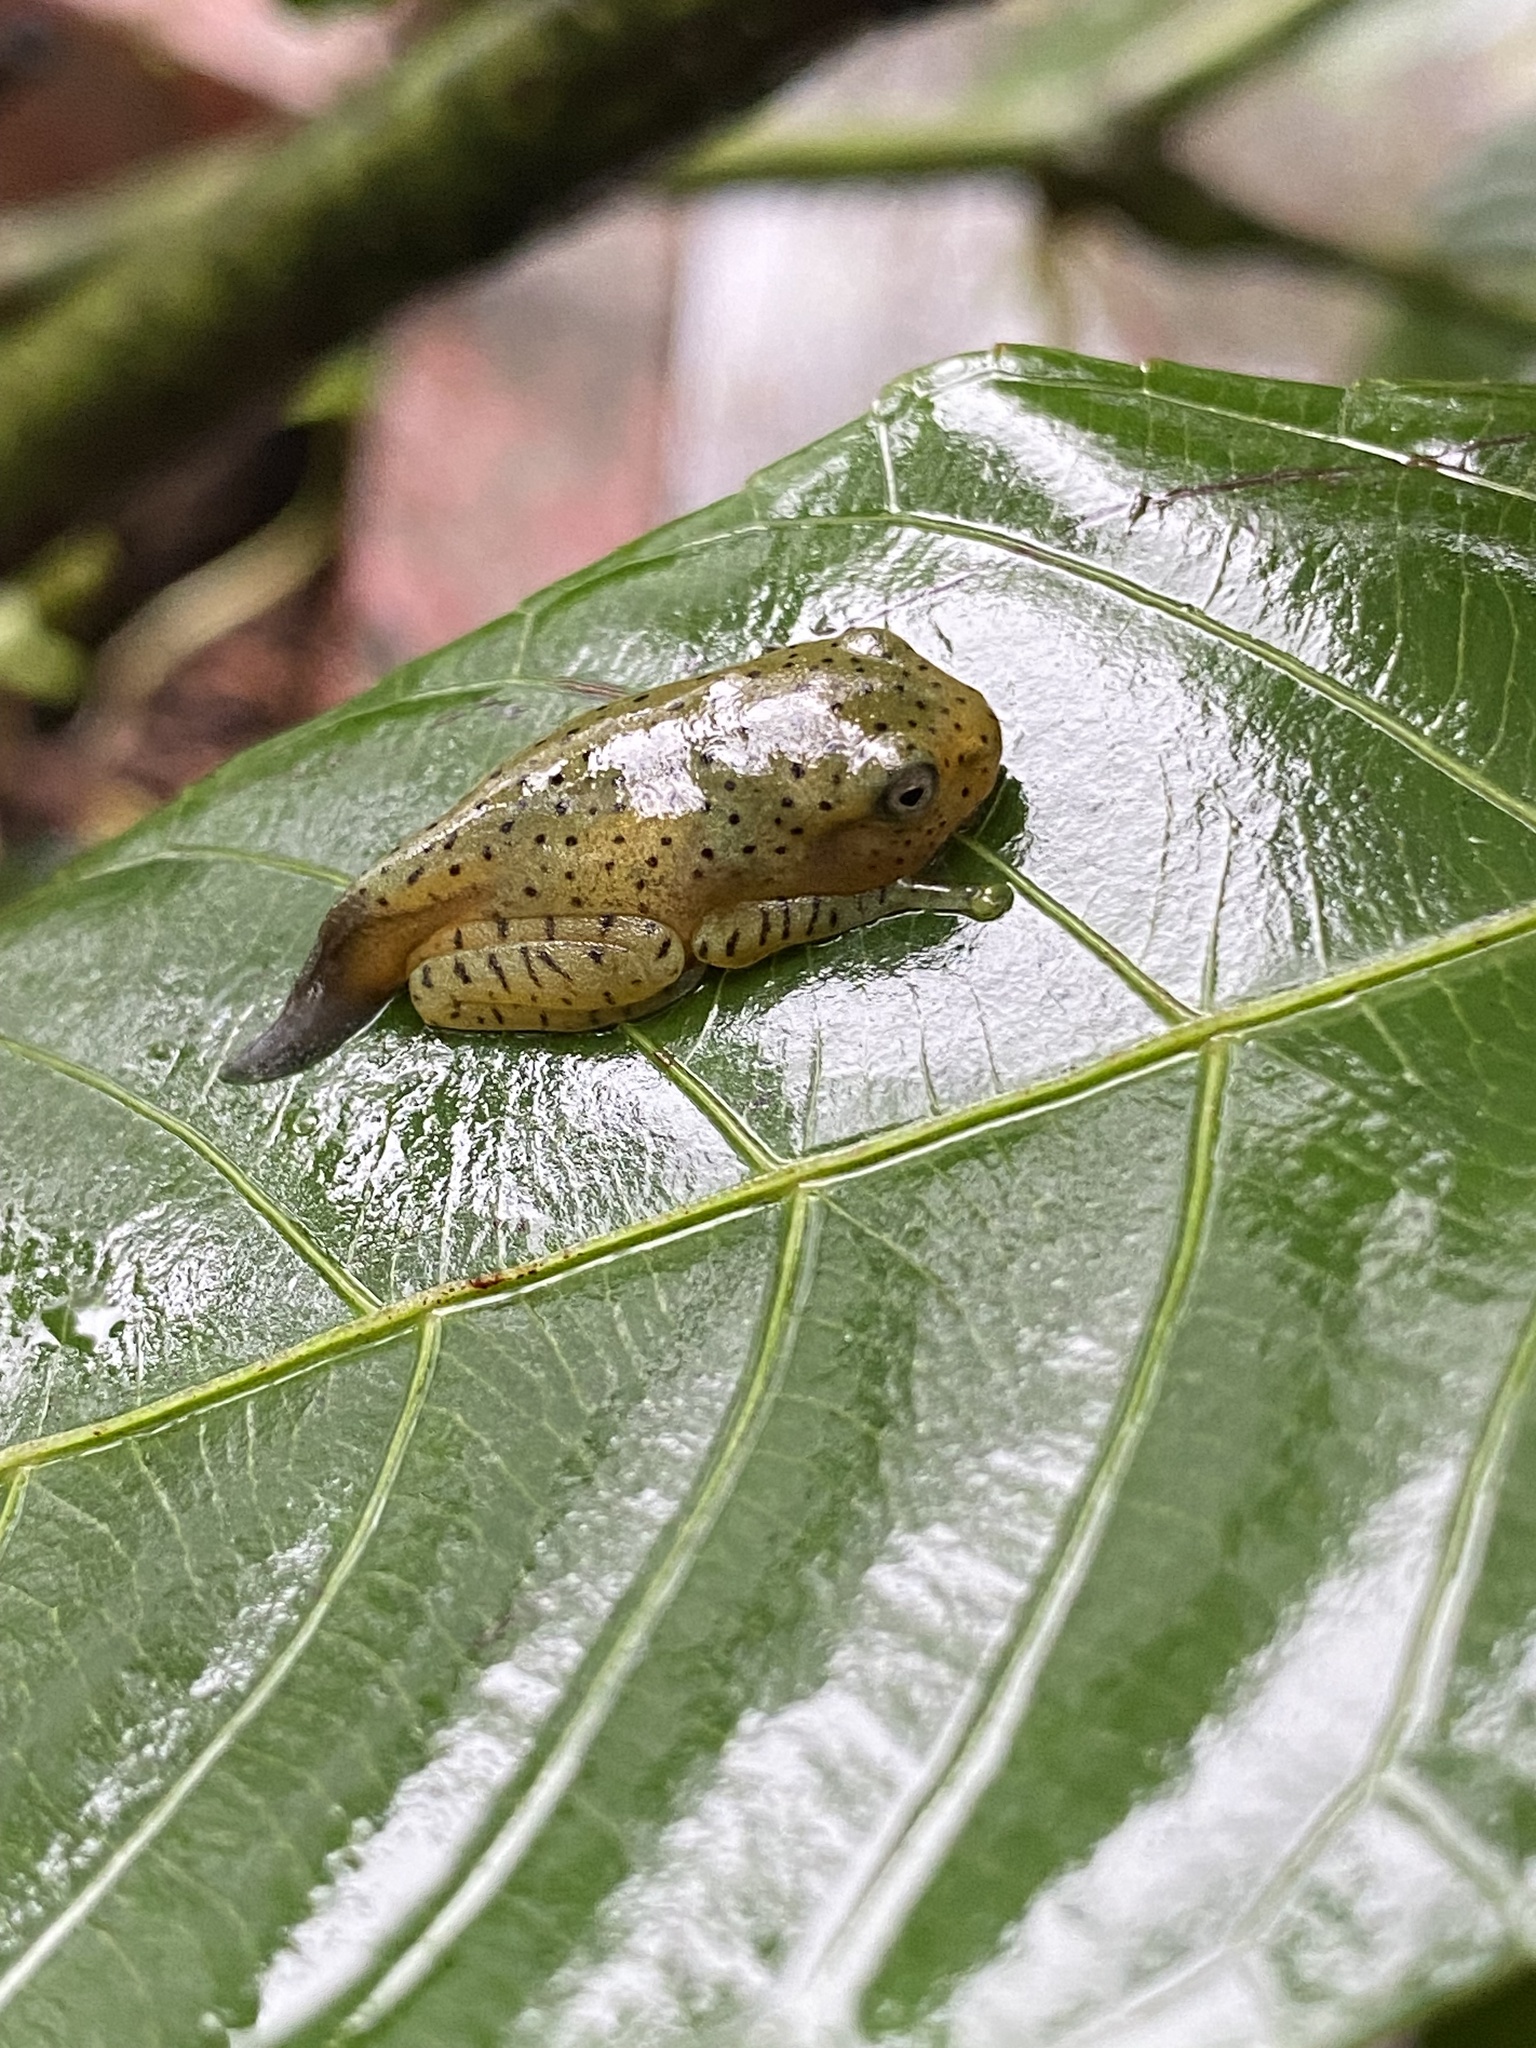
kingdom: Animalia
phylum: Chordata
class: Amphibia
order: Anura
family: Rhacophoridae
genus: Rhacophorus
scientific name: Rhacophorus malabaricus
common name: Malabar gliding frog
